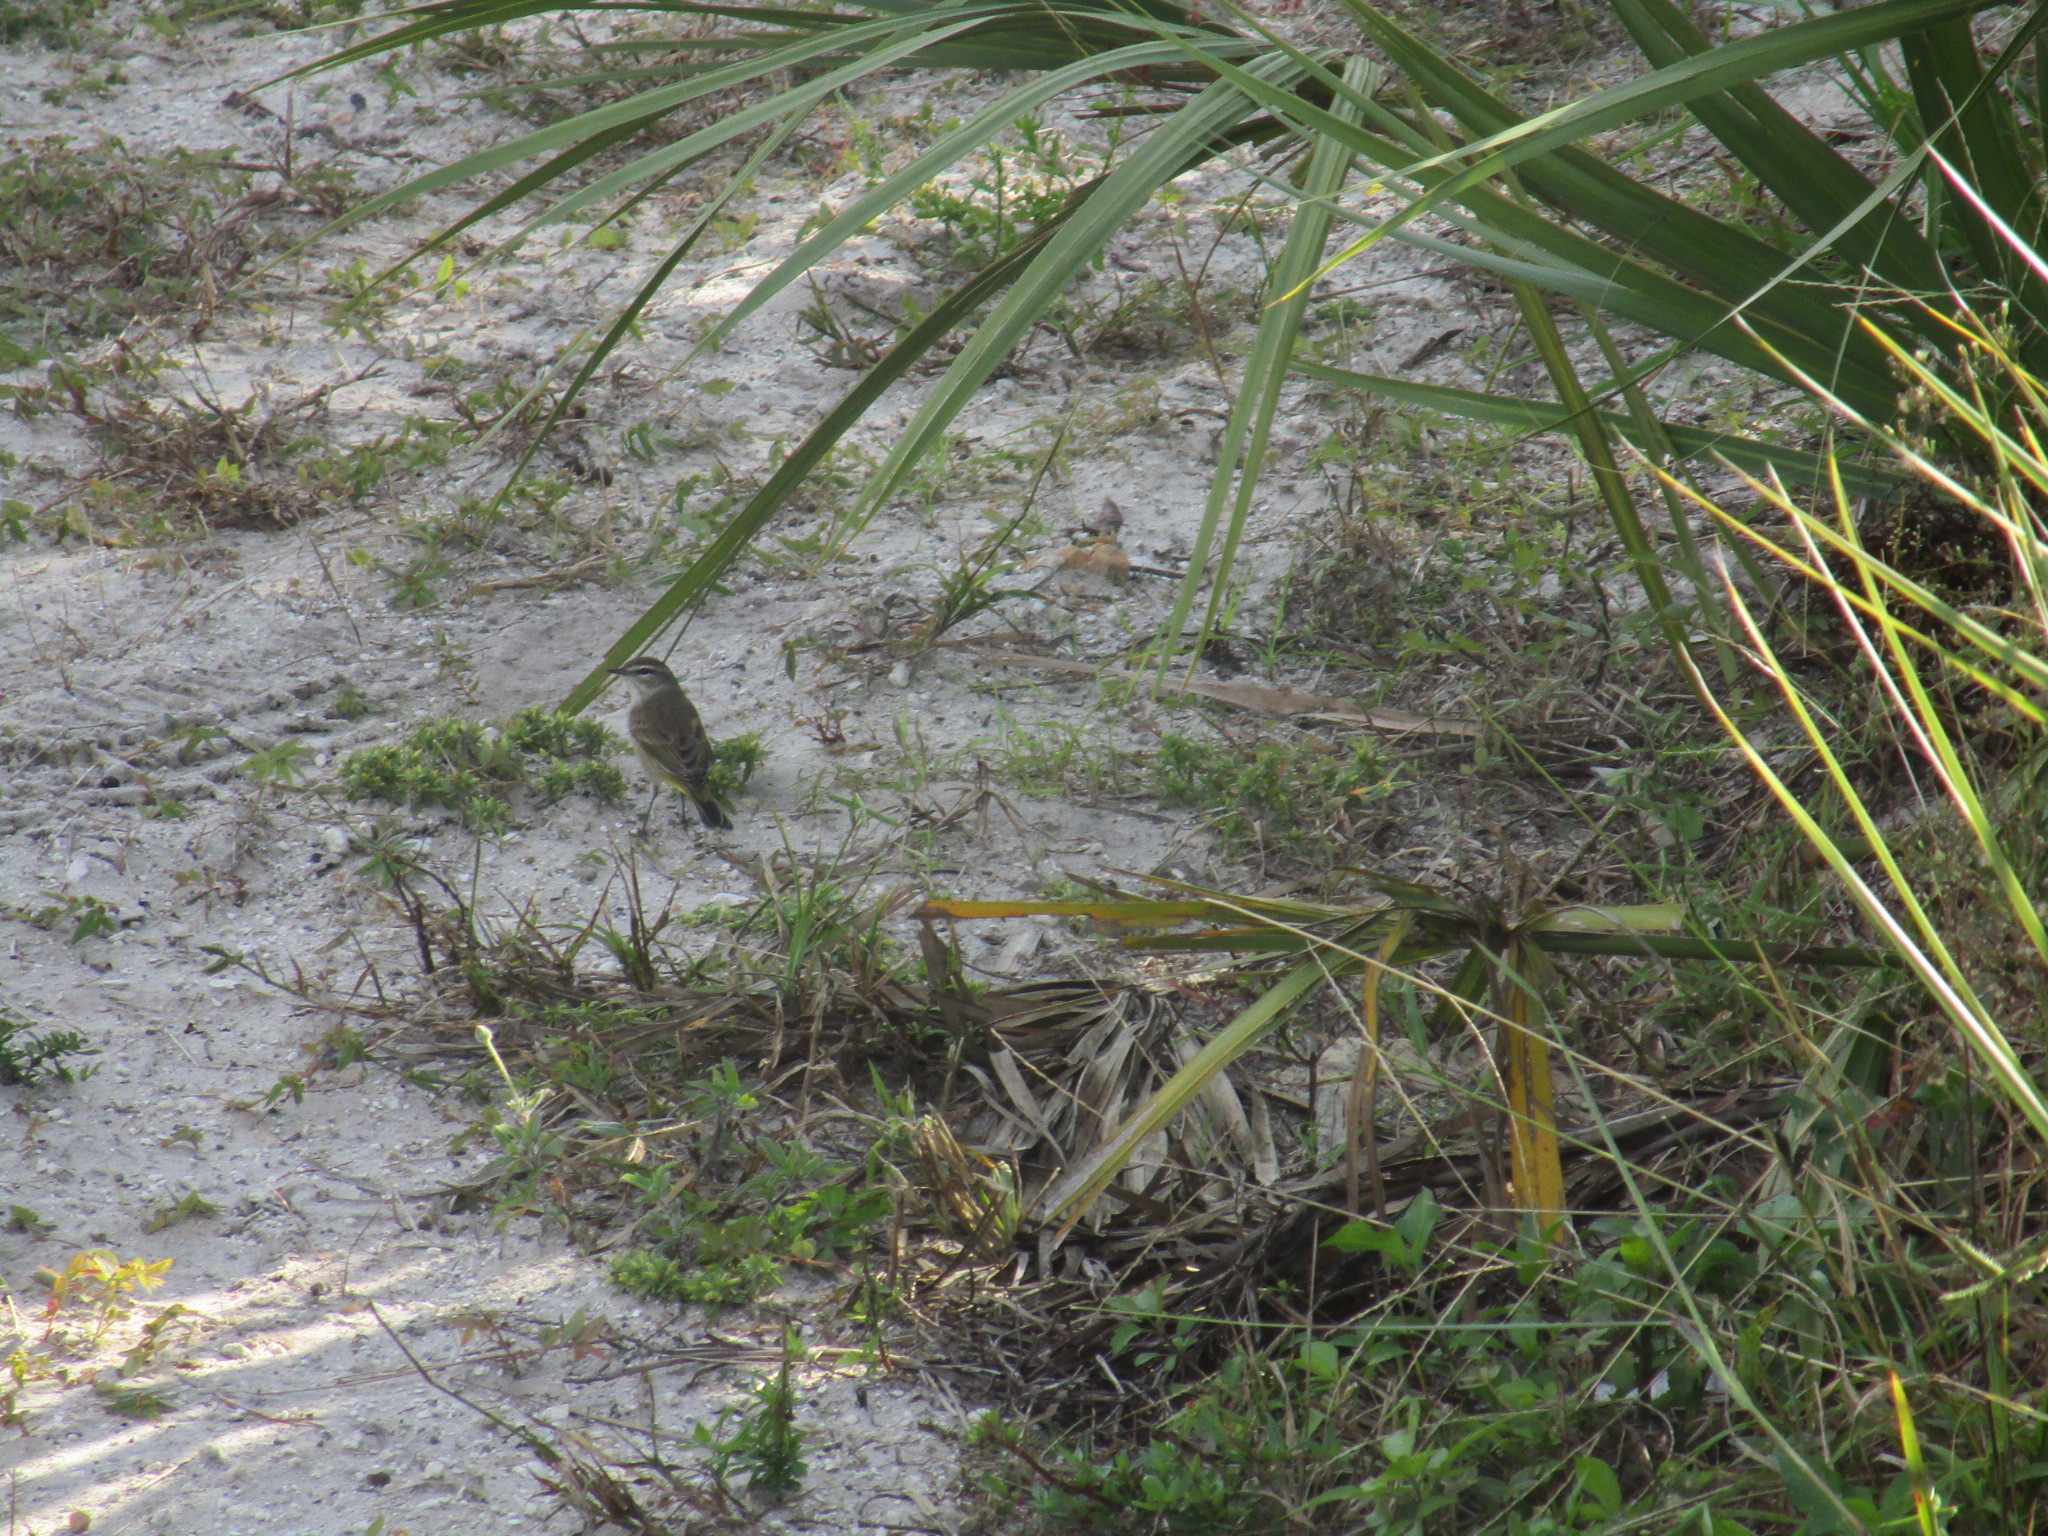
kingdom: Animalia
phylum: Chordata
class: Aves
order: Passeriformes
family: Parulidae
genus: Setophaga
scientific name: Setophaga palmarum
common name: Palm warbler
